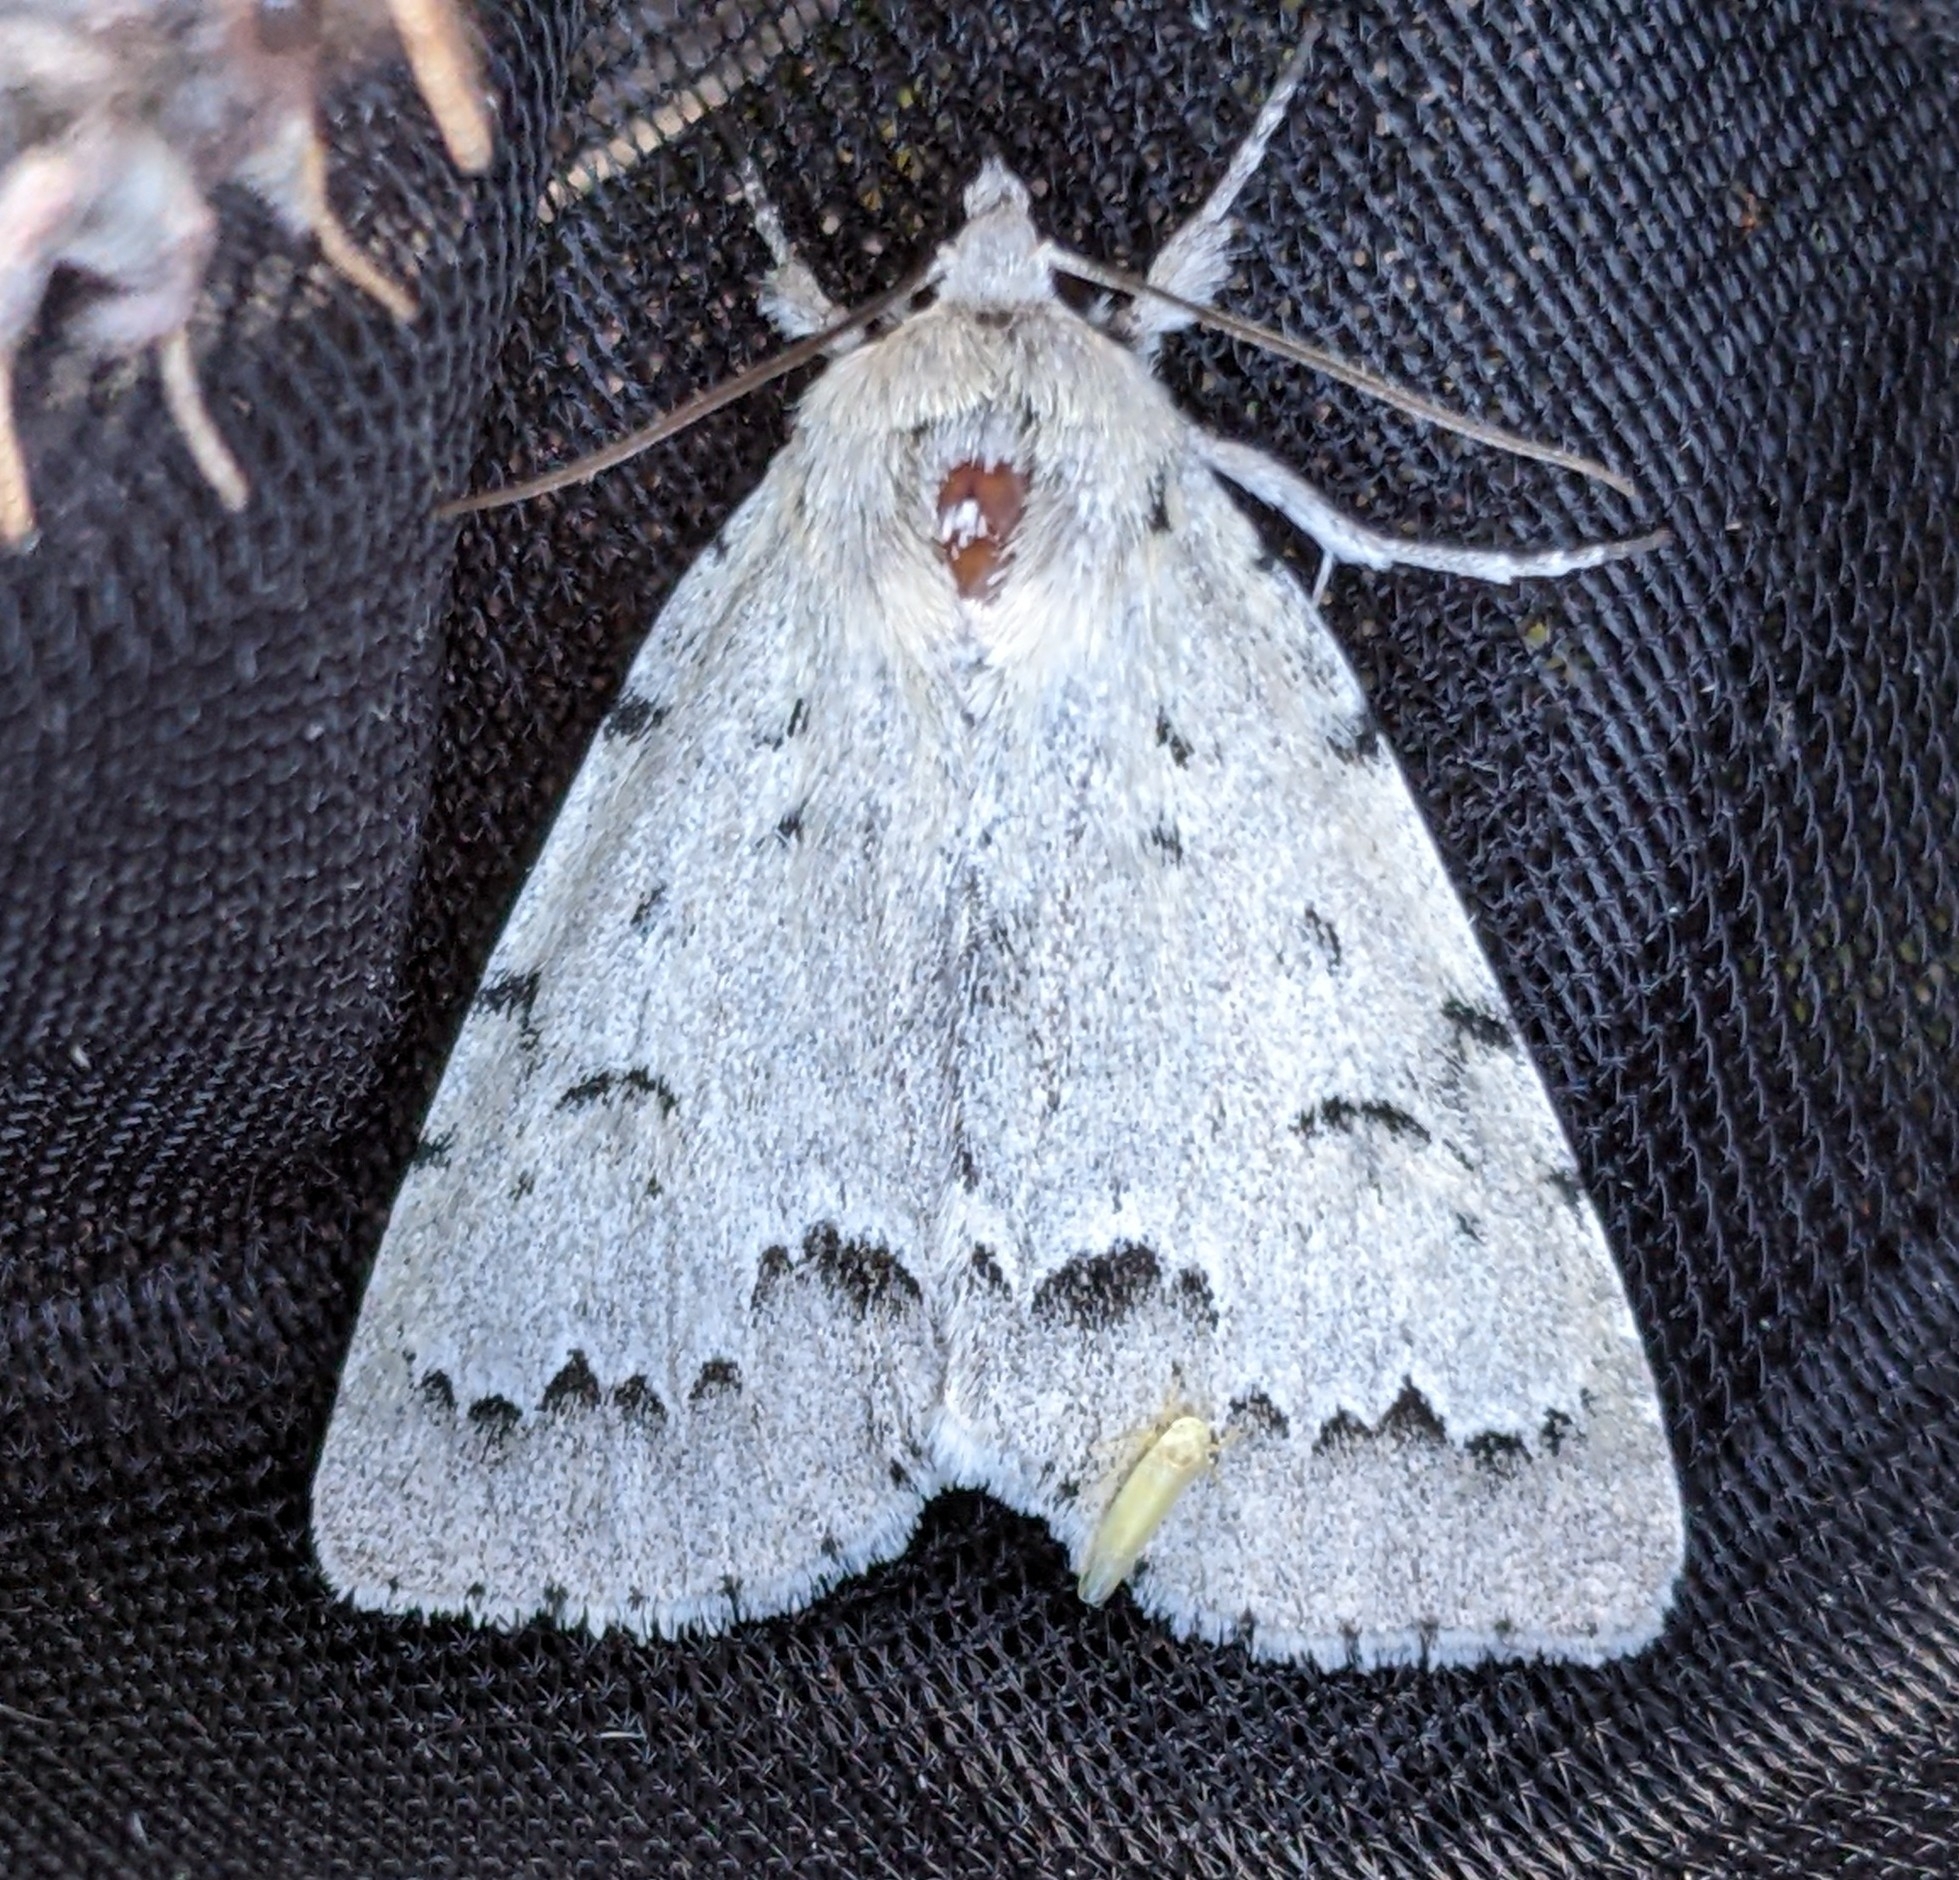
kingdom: Animalia
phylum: Arthropoda
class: Insecta
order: Lepidoptera
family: Noctuidae
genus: Acronicta
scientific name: Acronicta innotata
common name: Unmarked dagger
